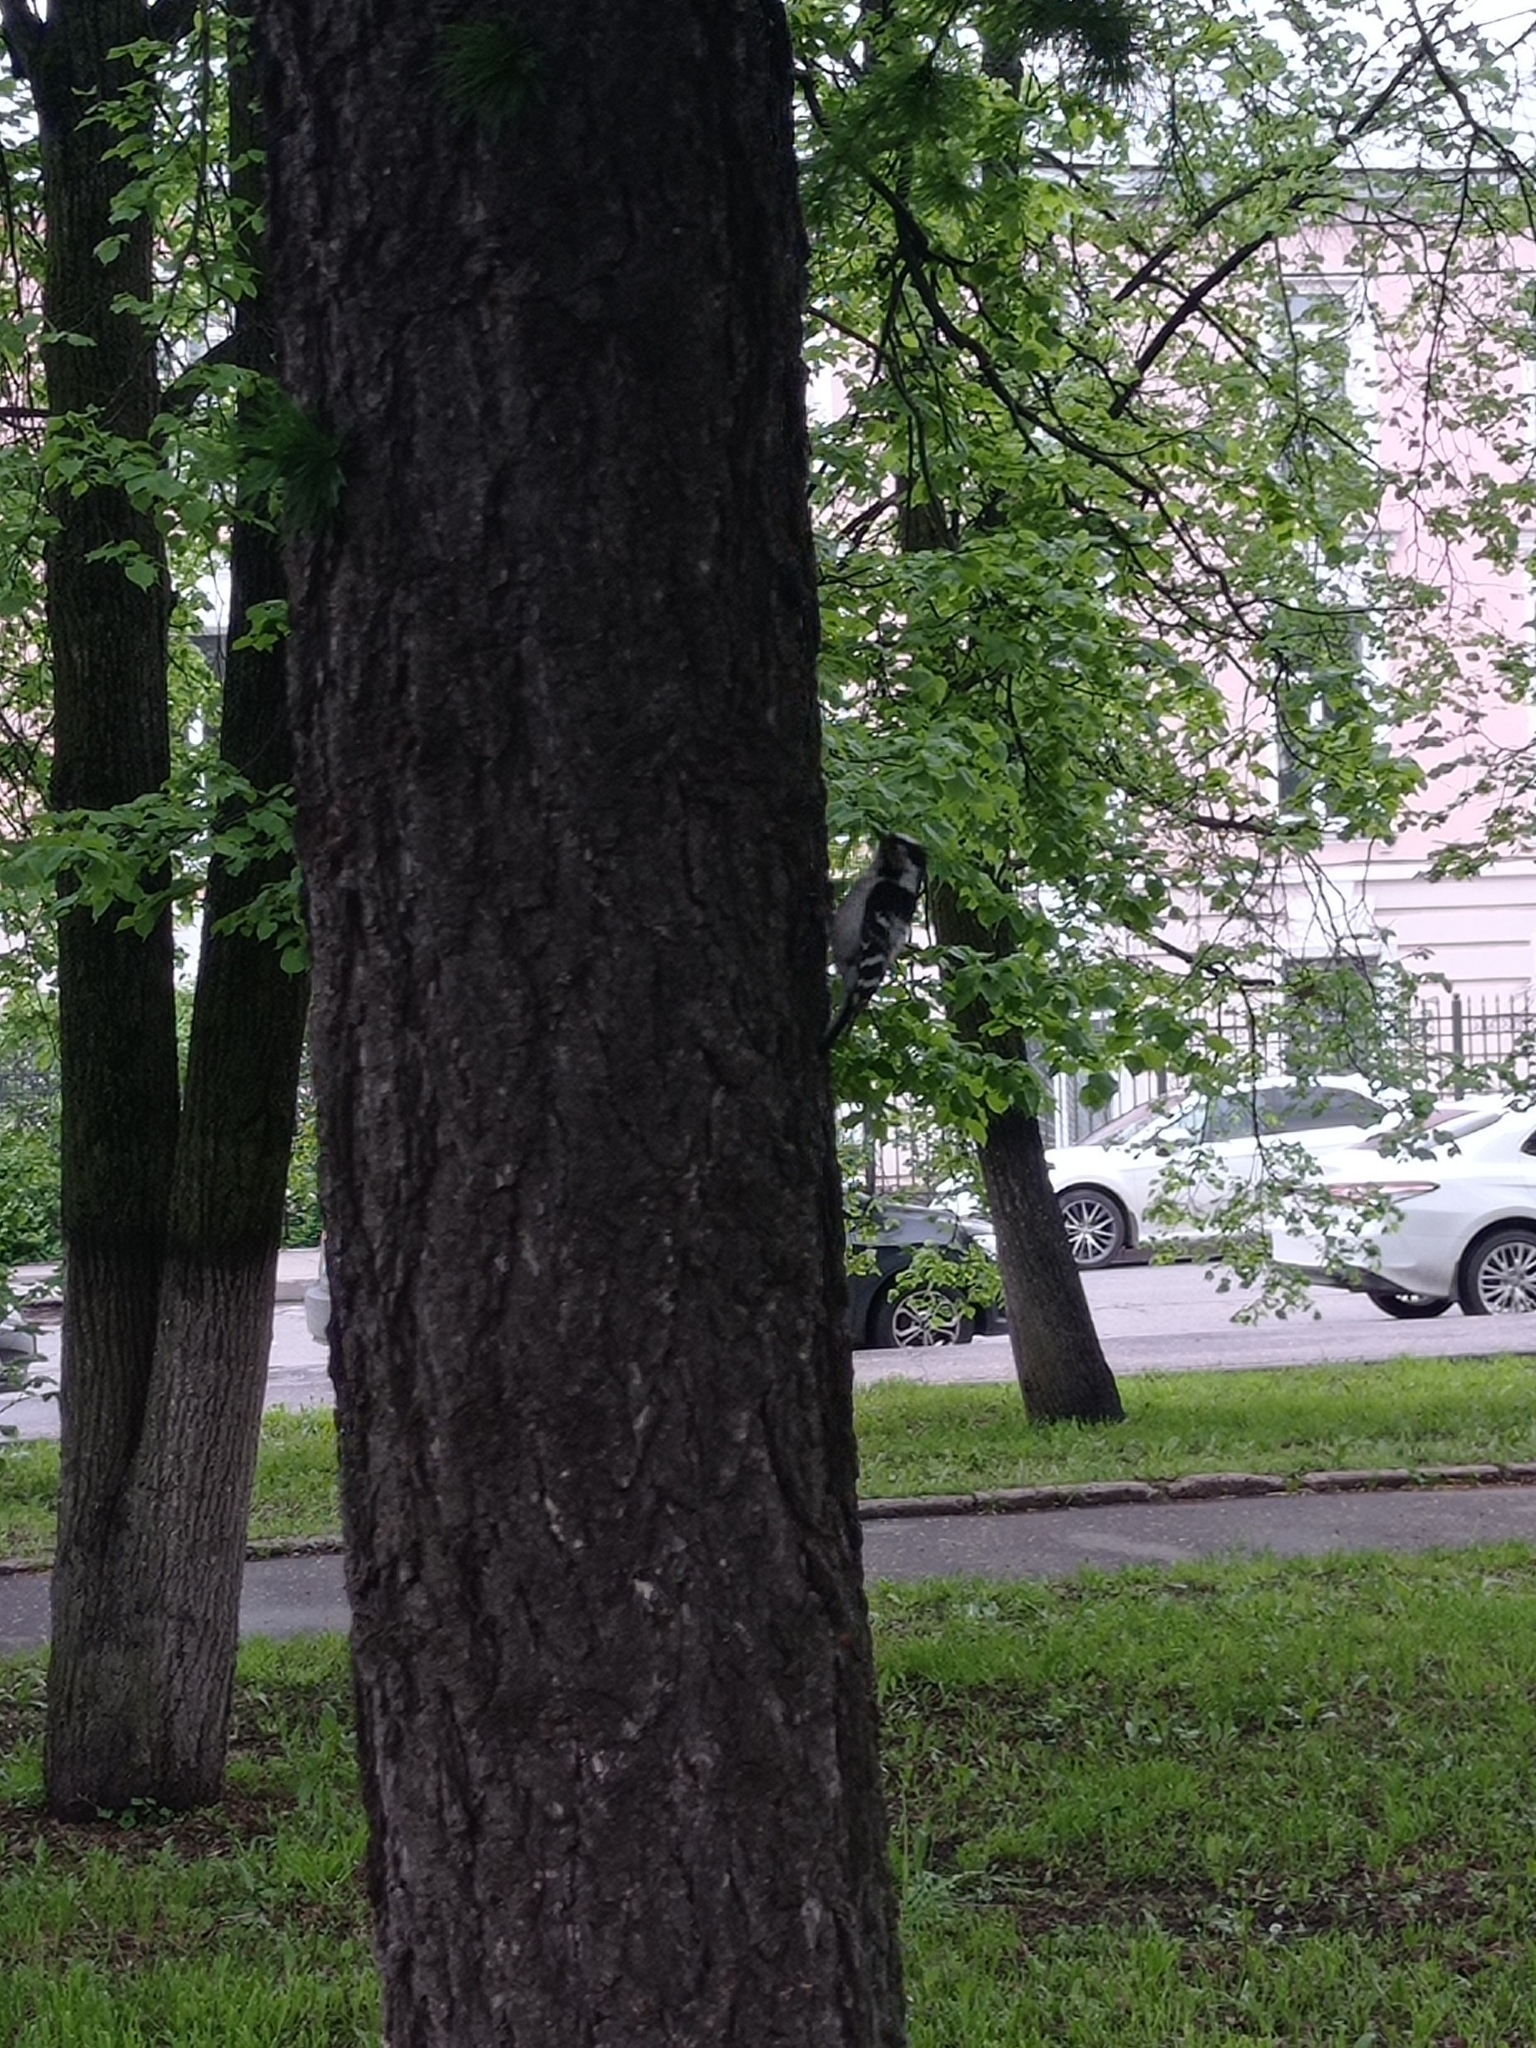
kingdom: Animalia
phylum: Chordata
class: Aves
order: Piciformes
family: Picidae
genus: Dryobates
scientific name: Dryobates minor
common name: Lesser spotted woodpecker
